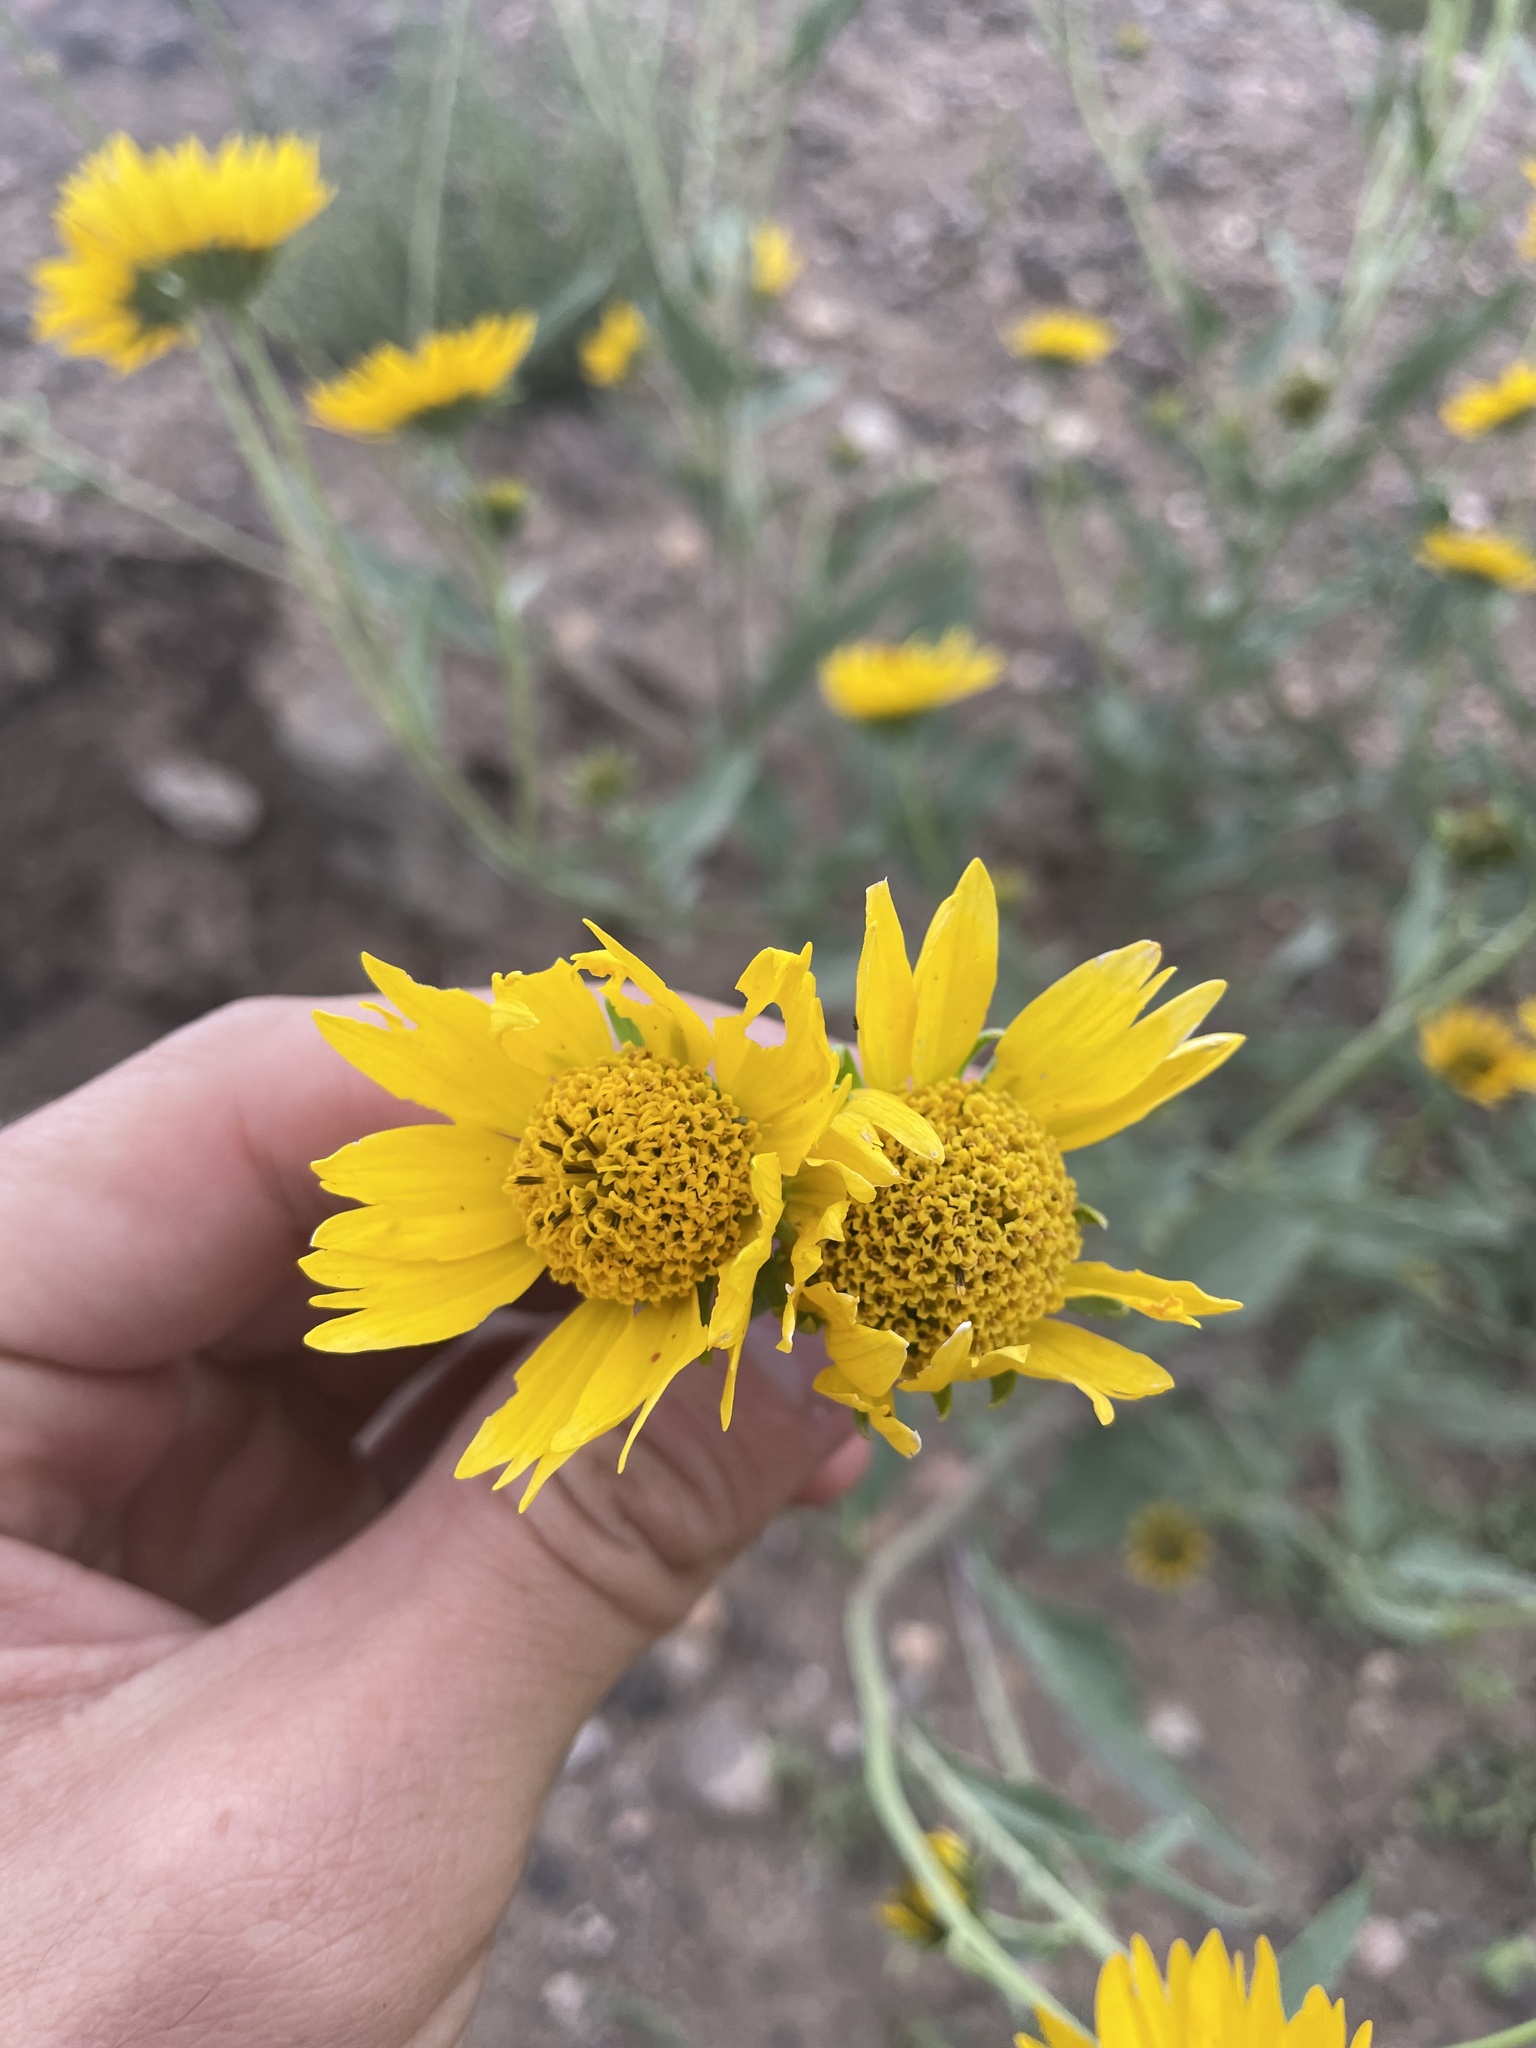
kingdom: Plantae
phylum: Tracheophyta
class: Magnoliopsida
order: Asterales
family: Asteraceae
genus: Verbesina
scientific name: Verbesina encelioides
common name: Golden crownbeard
